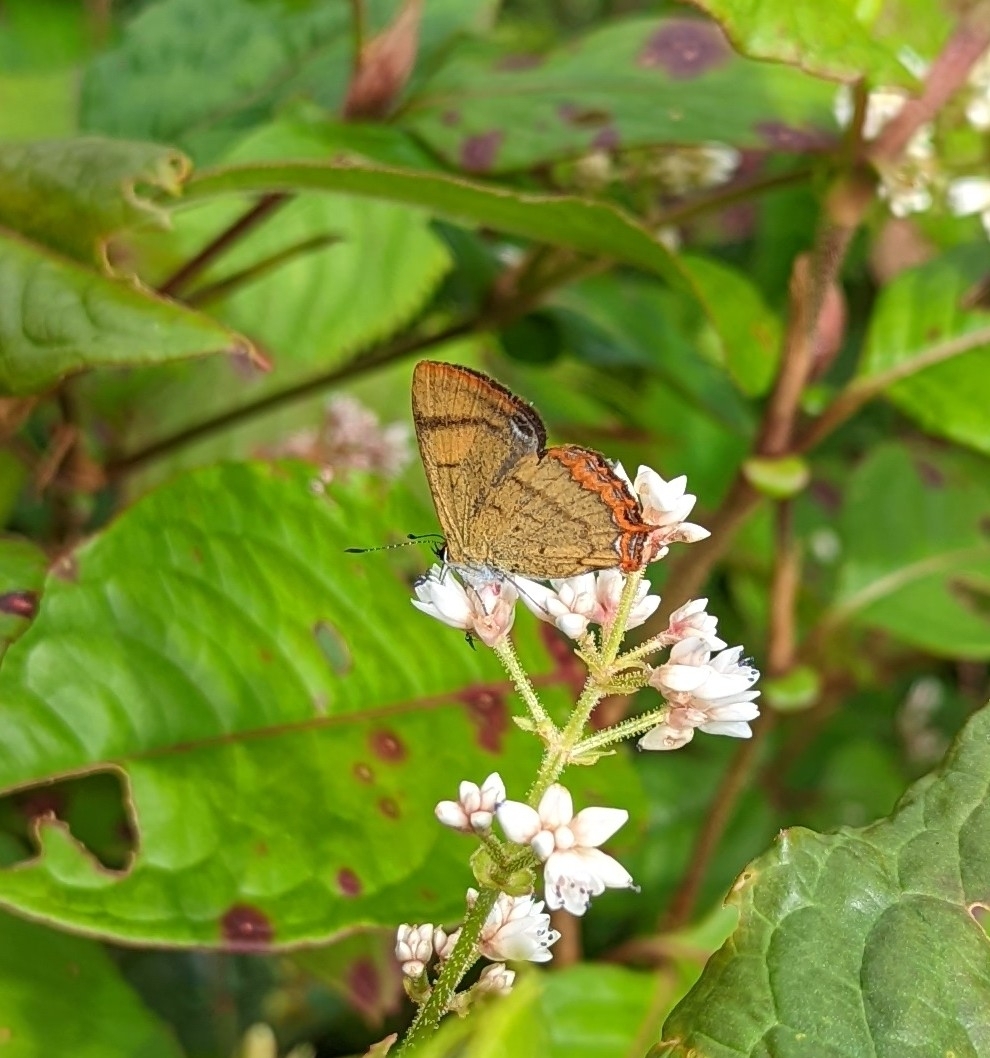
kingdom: Animalia
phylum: Arthropoda
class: Insecta
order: Lepidoptera
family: Lycaenidae
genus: Heliophorus
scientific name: Heliophorus brahma
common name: Golden sapphire
